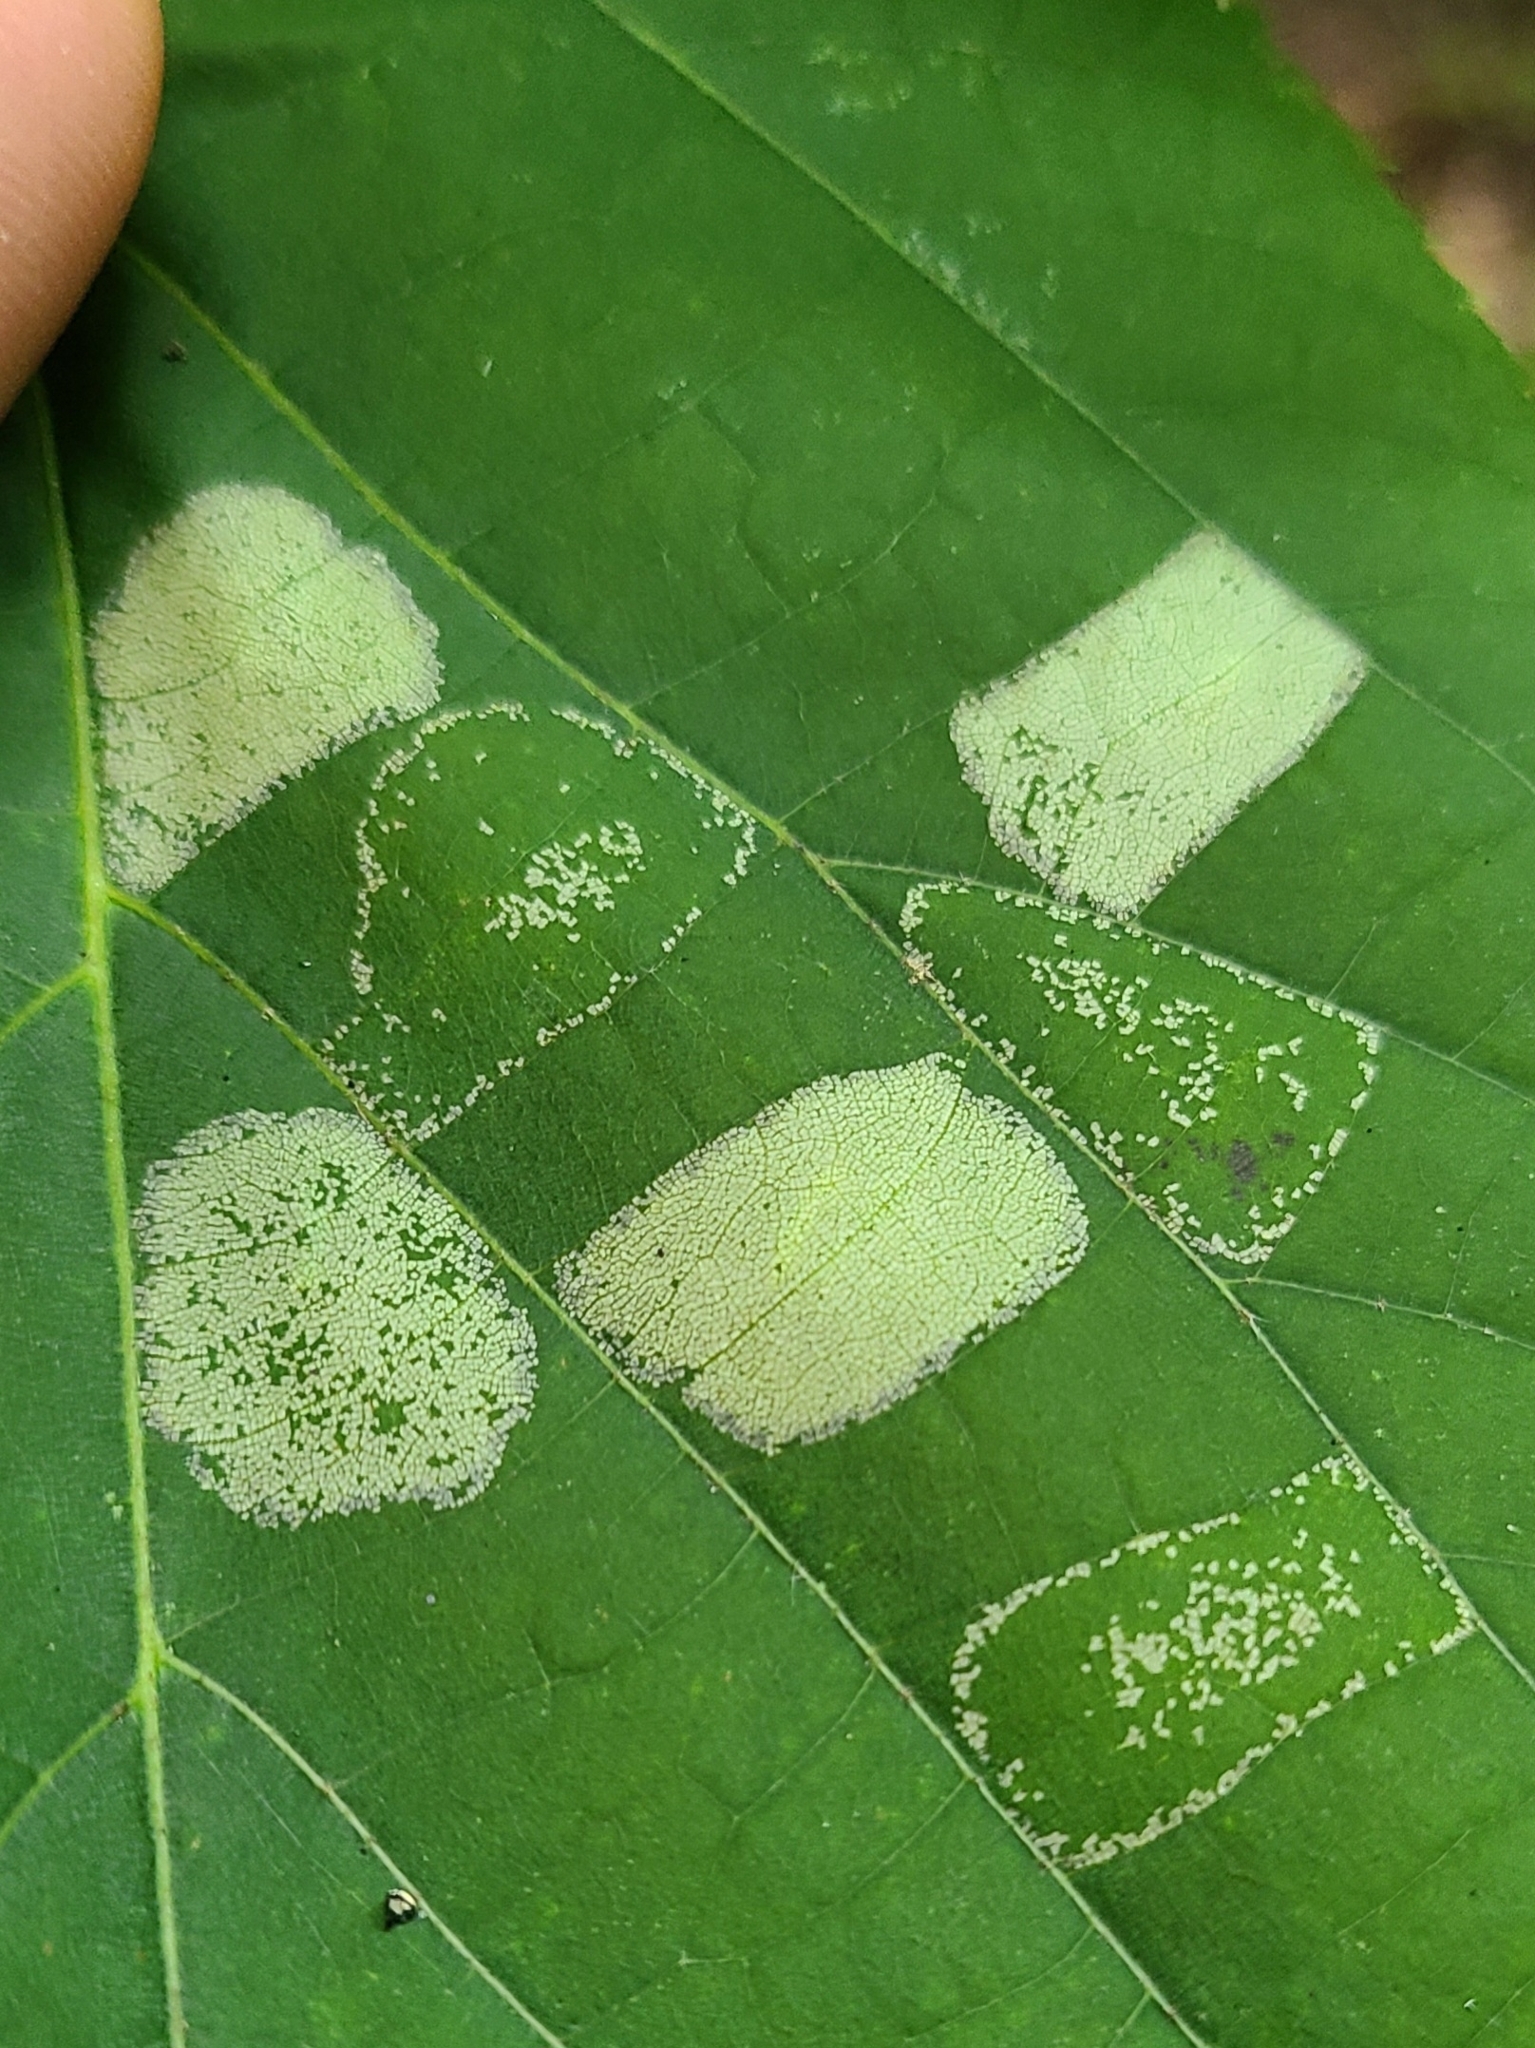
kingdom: Animalia
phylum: Arthropoda
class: Insecta
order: Lepidoptera
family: Gracillariidae
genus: Phyllonorycter
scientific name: Phyllonorycter lucetiella
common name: Basswood miner moth
